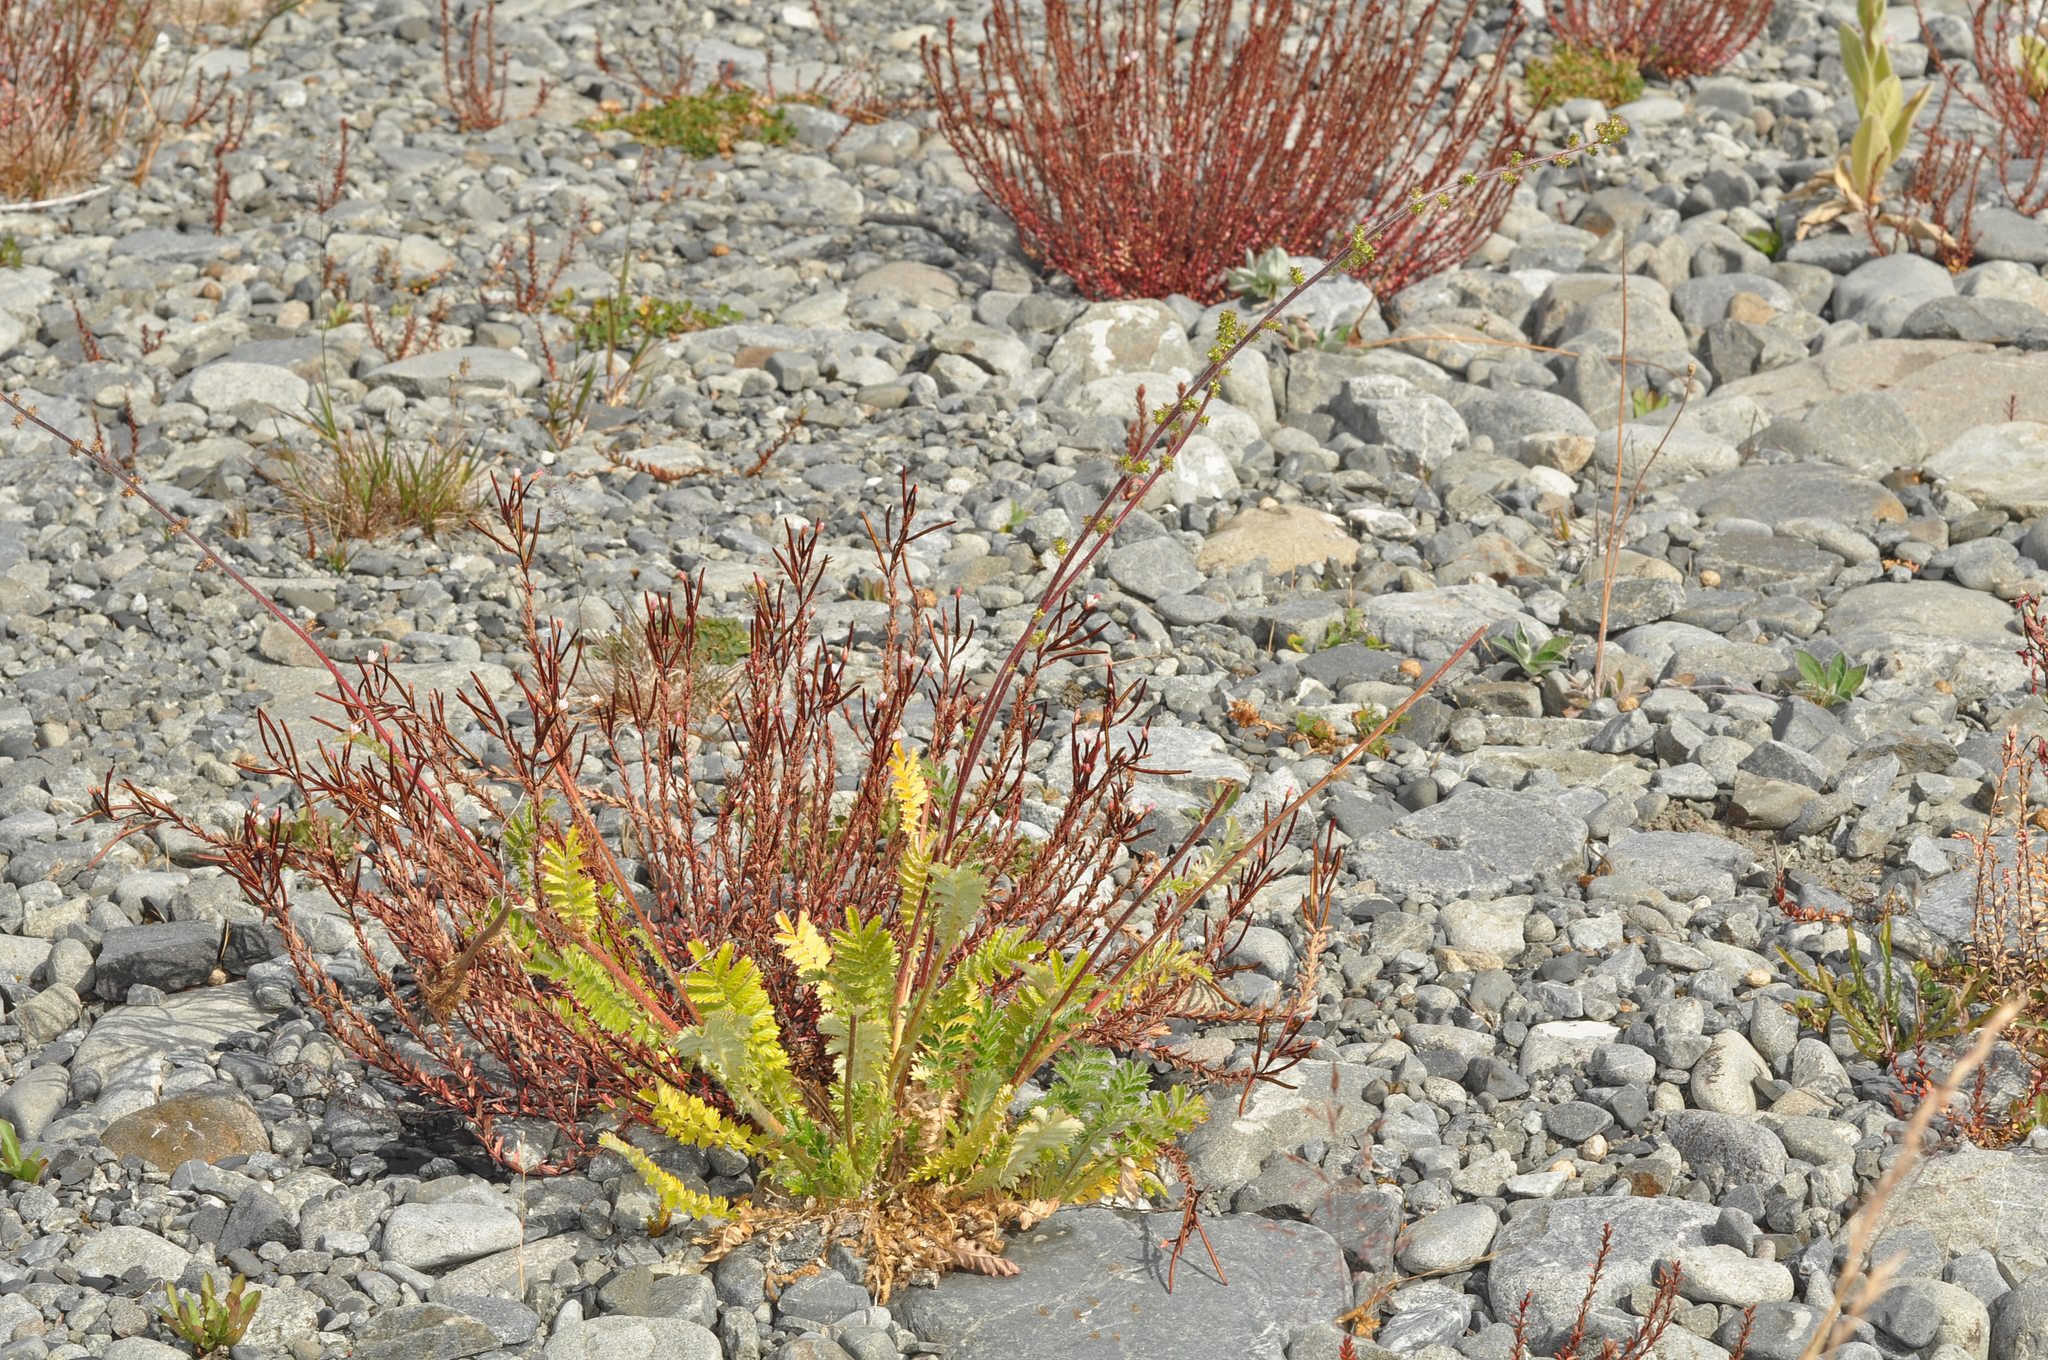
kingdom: Plantae
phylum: Tracheophyta
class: Magnoliopsida
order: Rosales
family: Rosaceae
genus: Acaena
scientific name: Acaena agnipila
